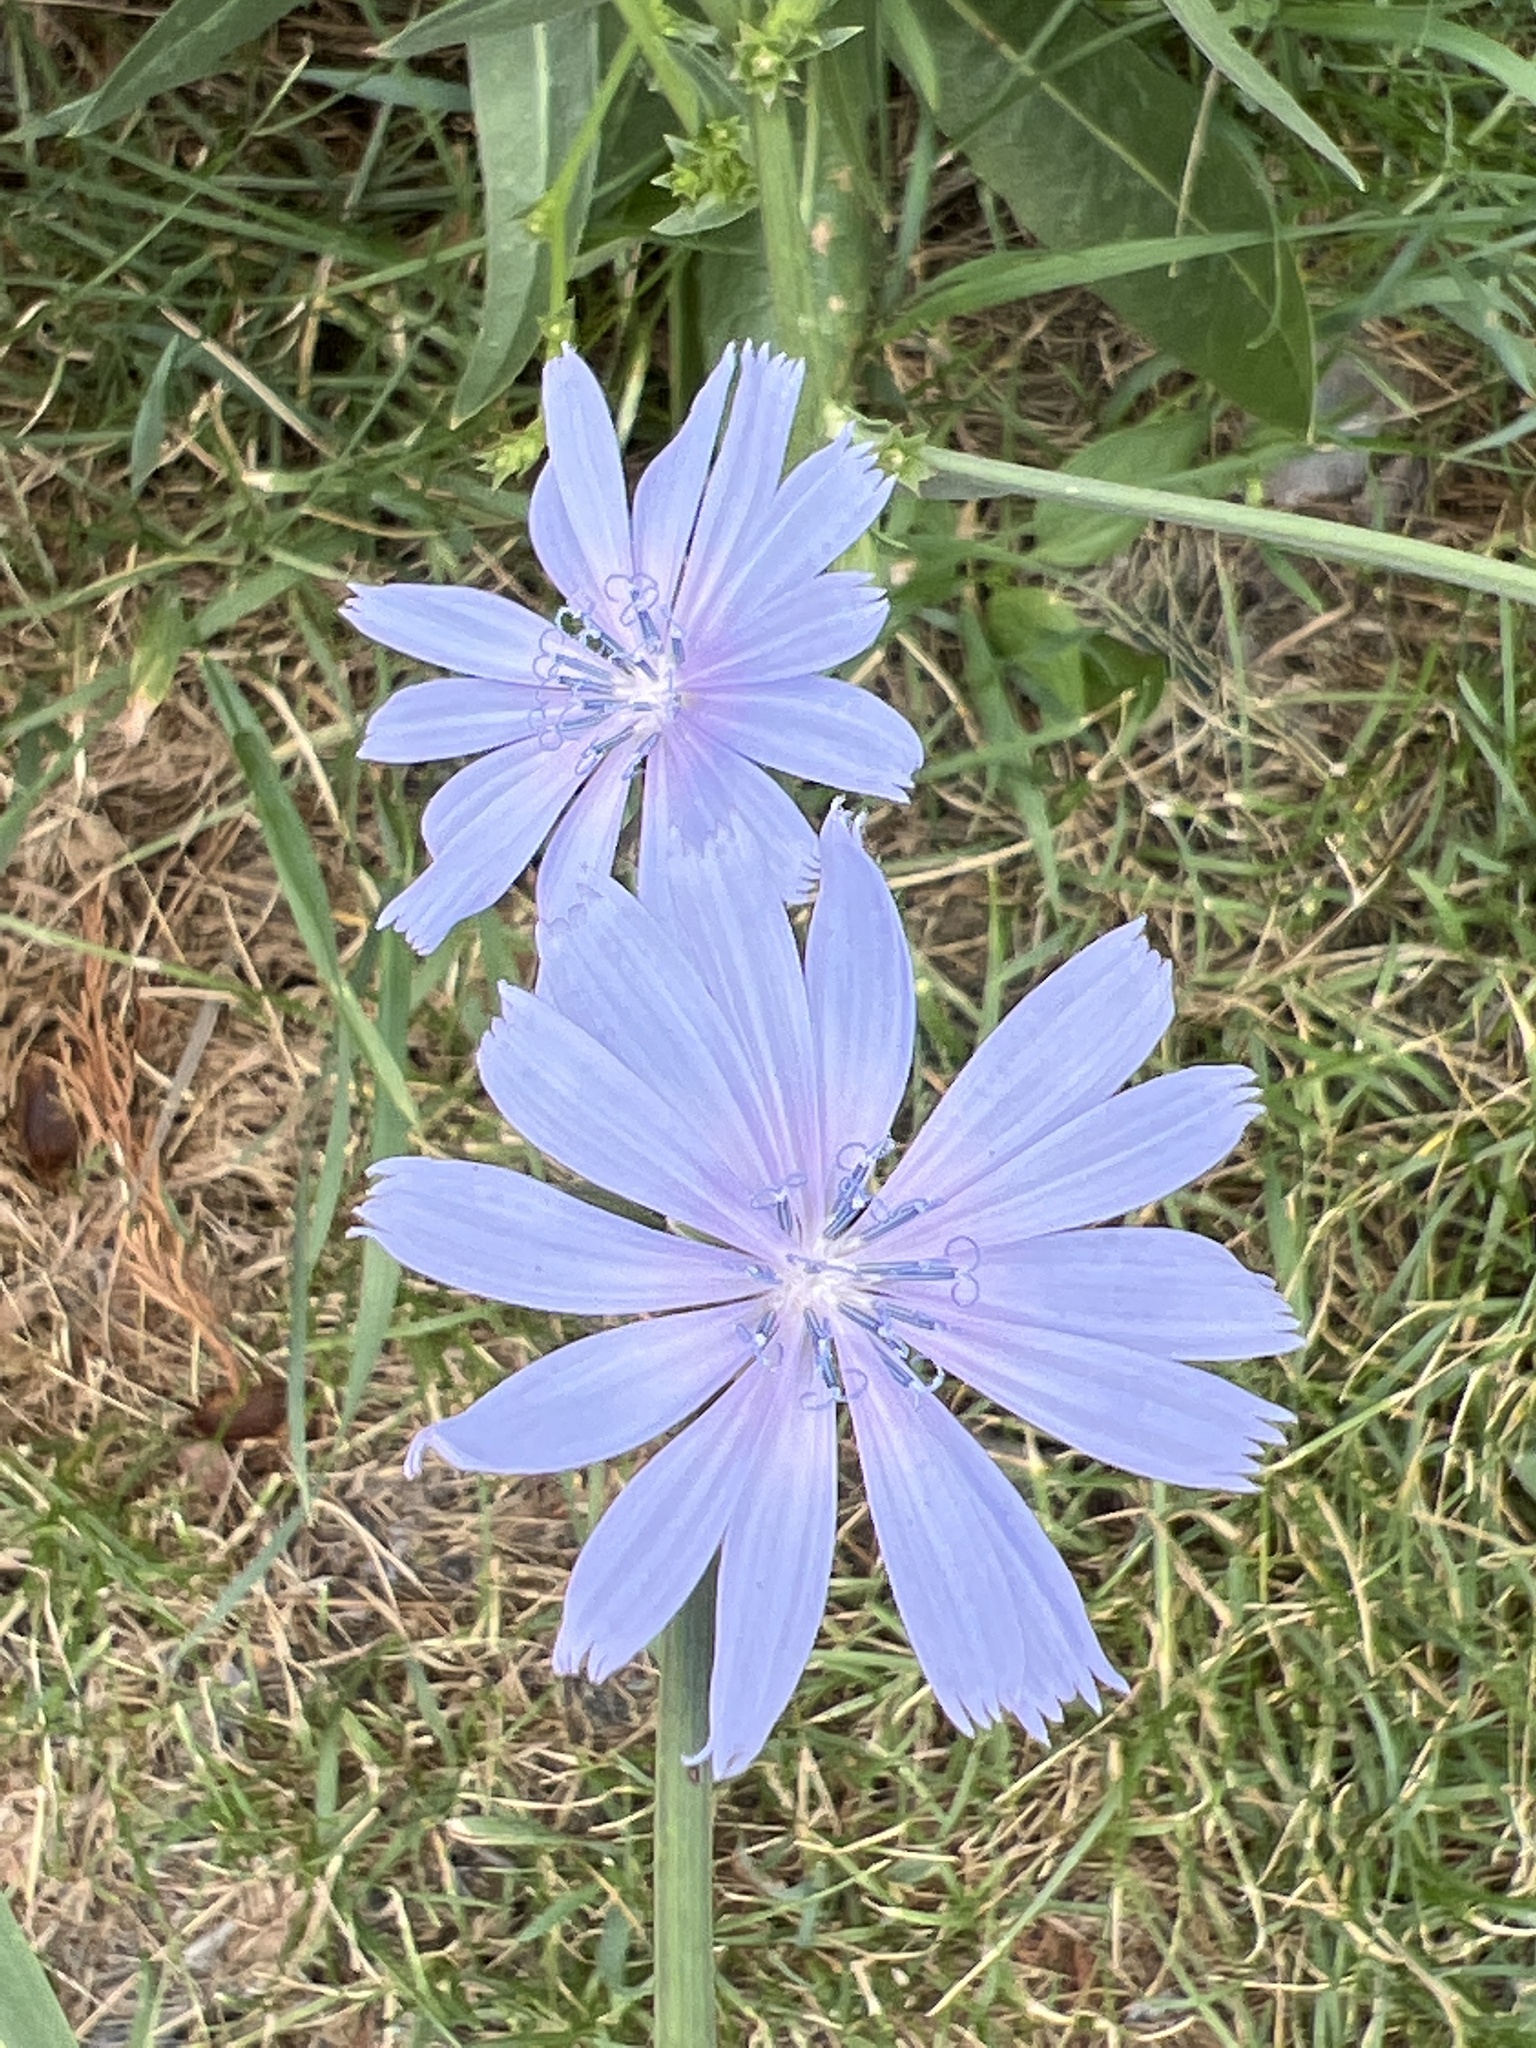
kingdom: Plantae
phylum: Tracheophyta
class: Magnoliopsida
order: Asterales
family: Asteraceae
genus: Cichorium
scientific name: Cichorium intybus
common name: Chicory
